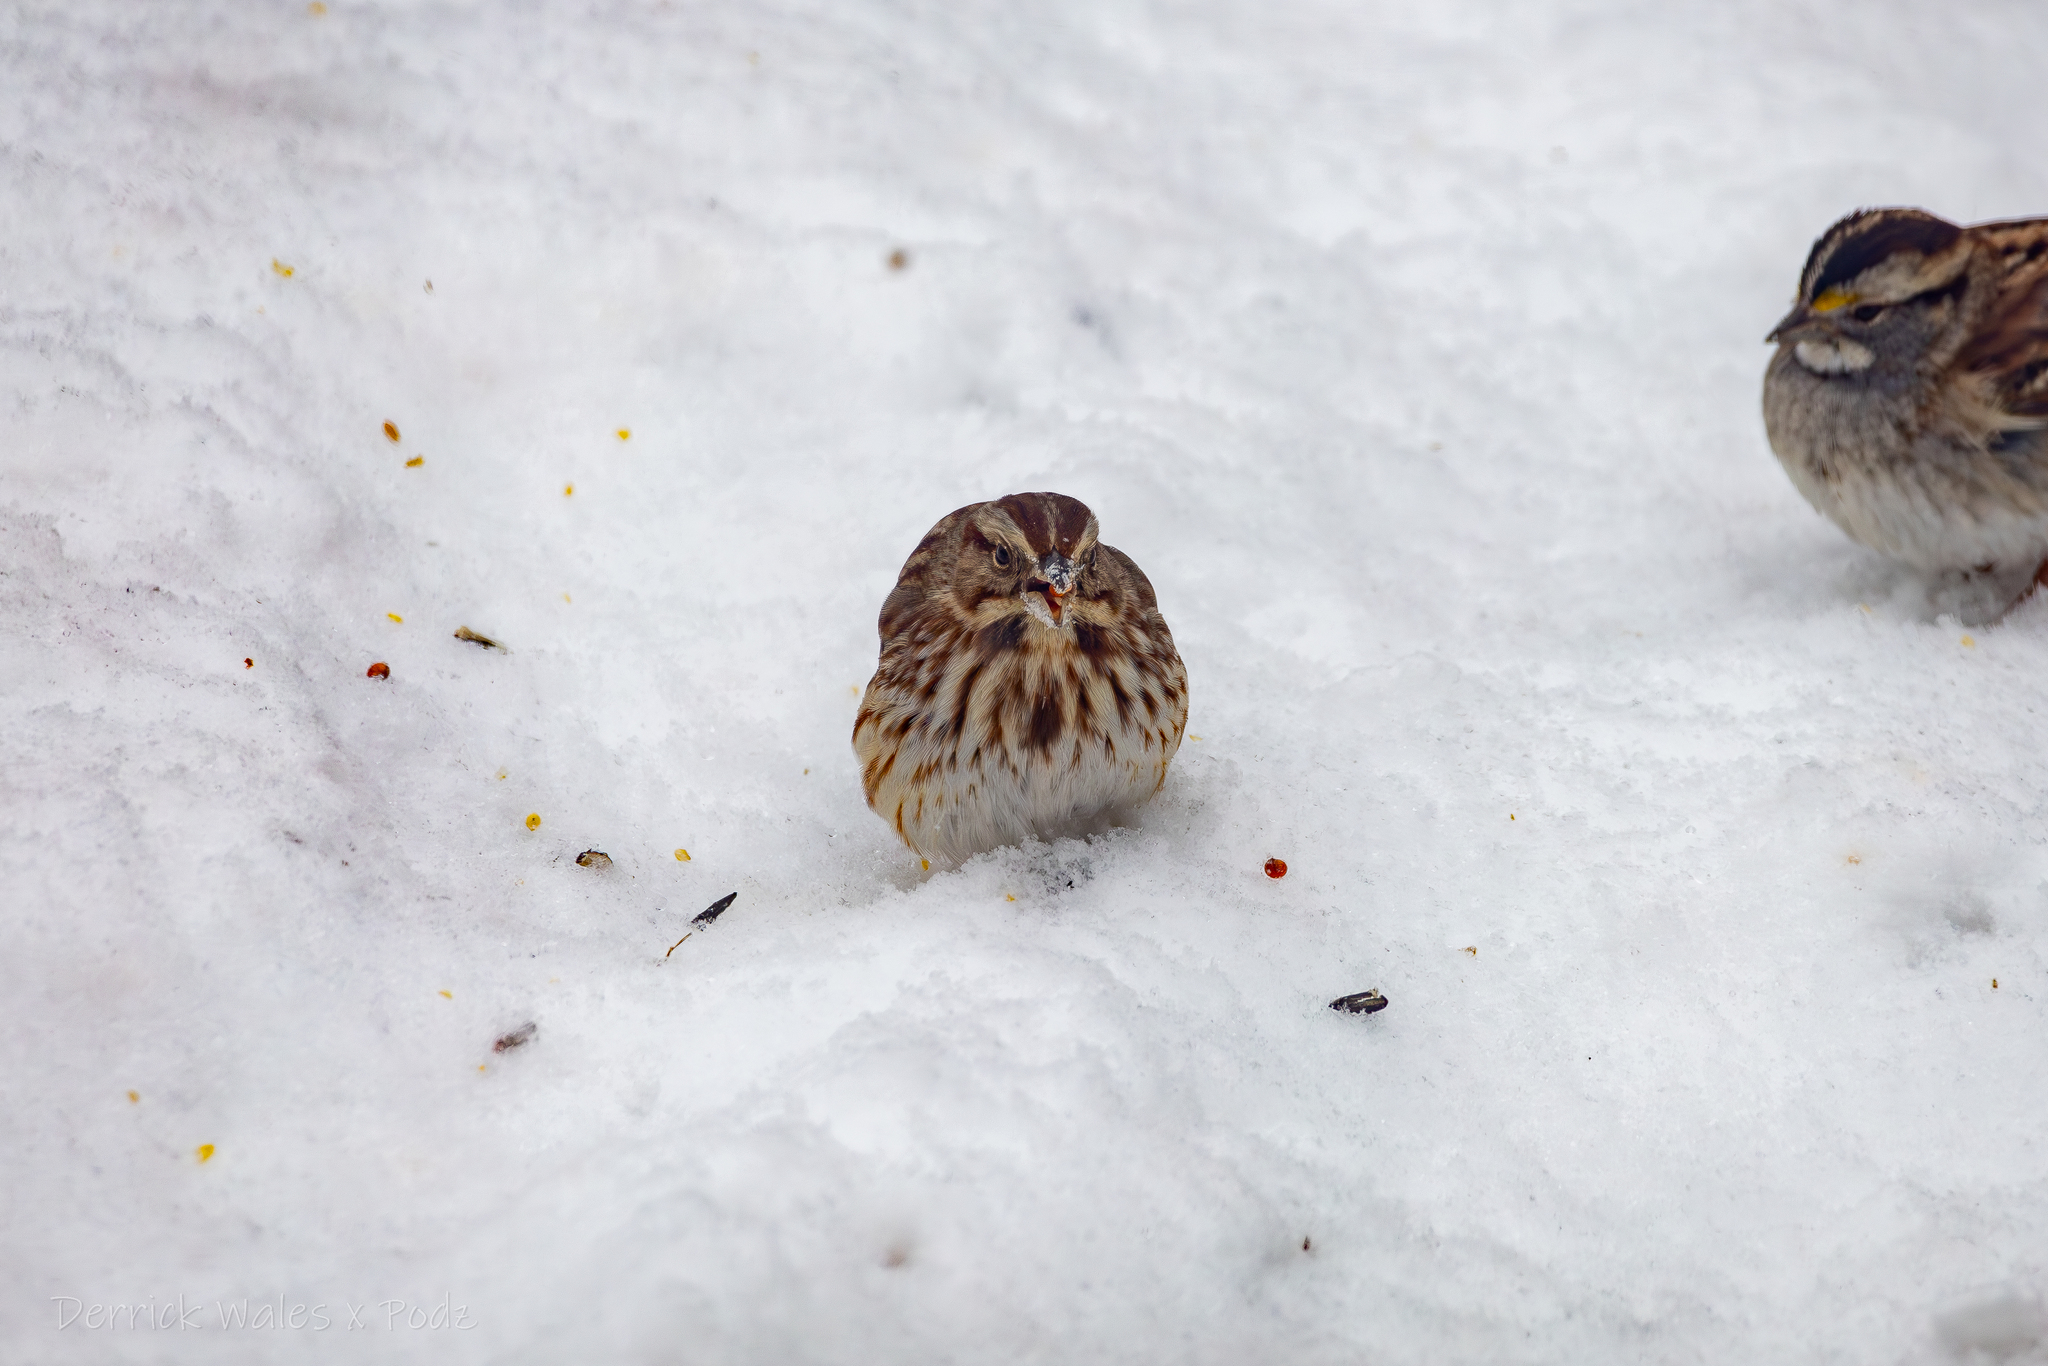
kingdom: Animalia
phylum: Chordata
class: Aves
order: Passeriformes
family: Passerellidae
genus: Melospiza
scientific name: Melospiza melodia
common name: Song sparrow
